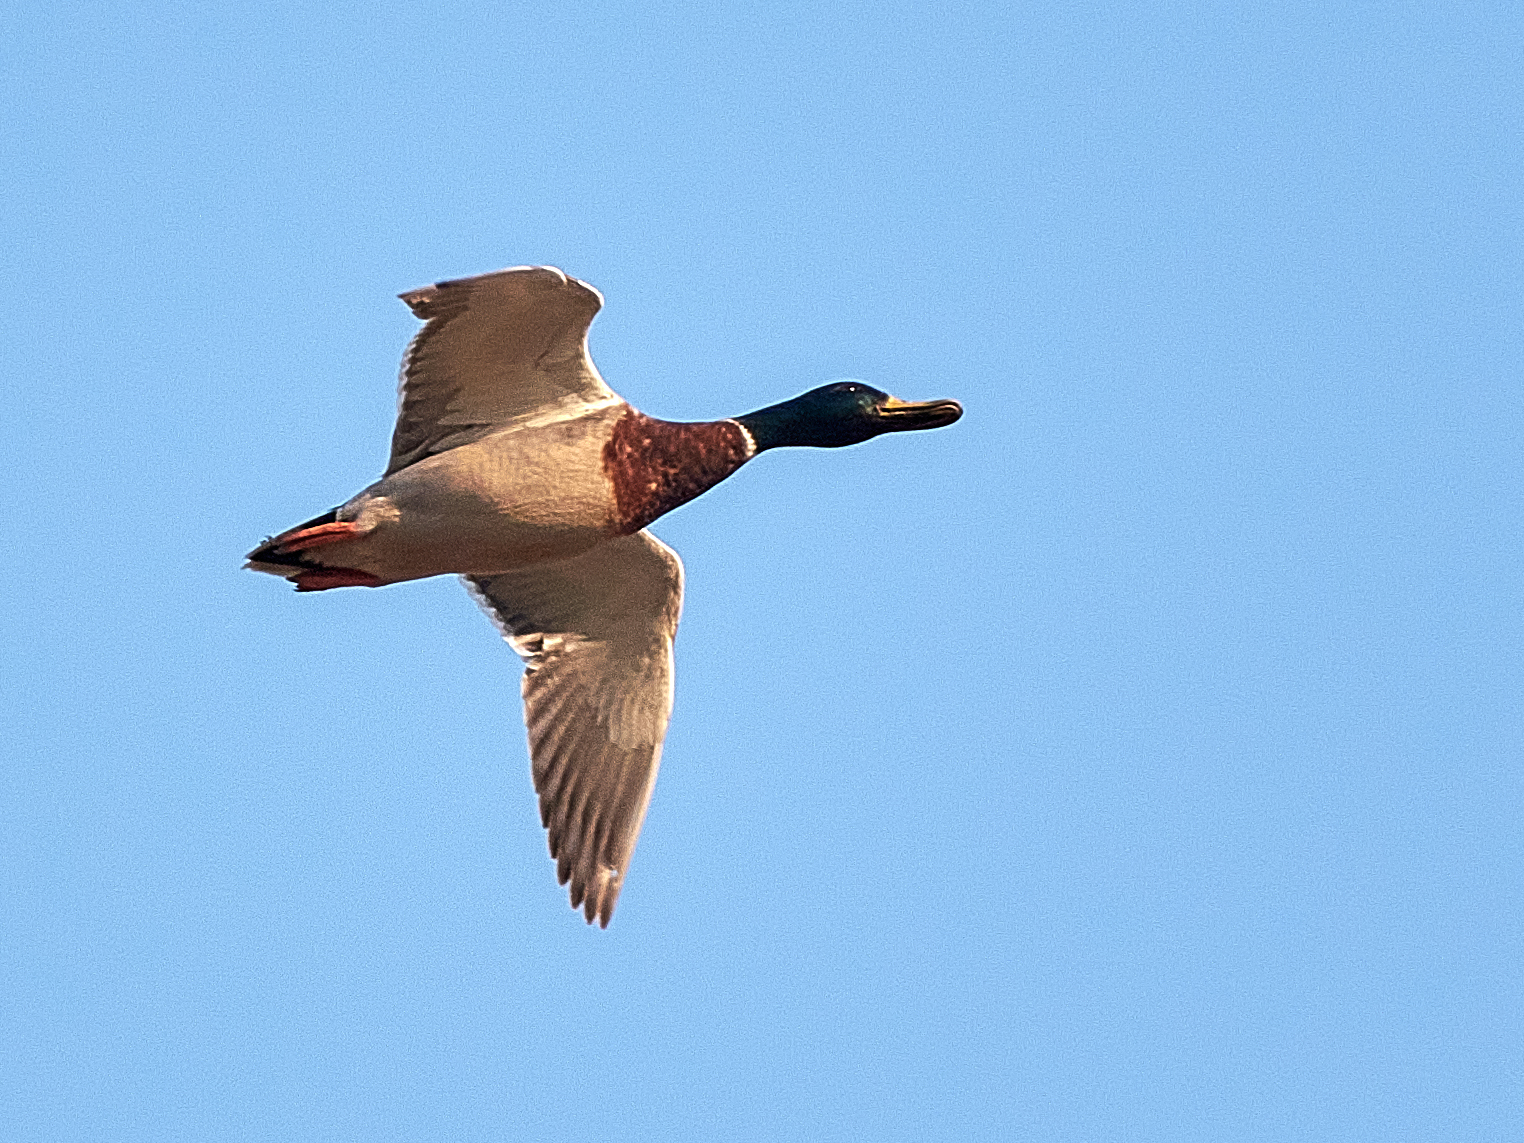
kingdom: Animalia
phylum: Chordata
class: Aves
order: Anseriformes
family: Anatidae
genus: Anas
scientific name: Anas platyrhynchos
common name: Mallard
